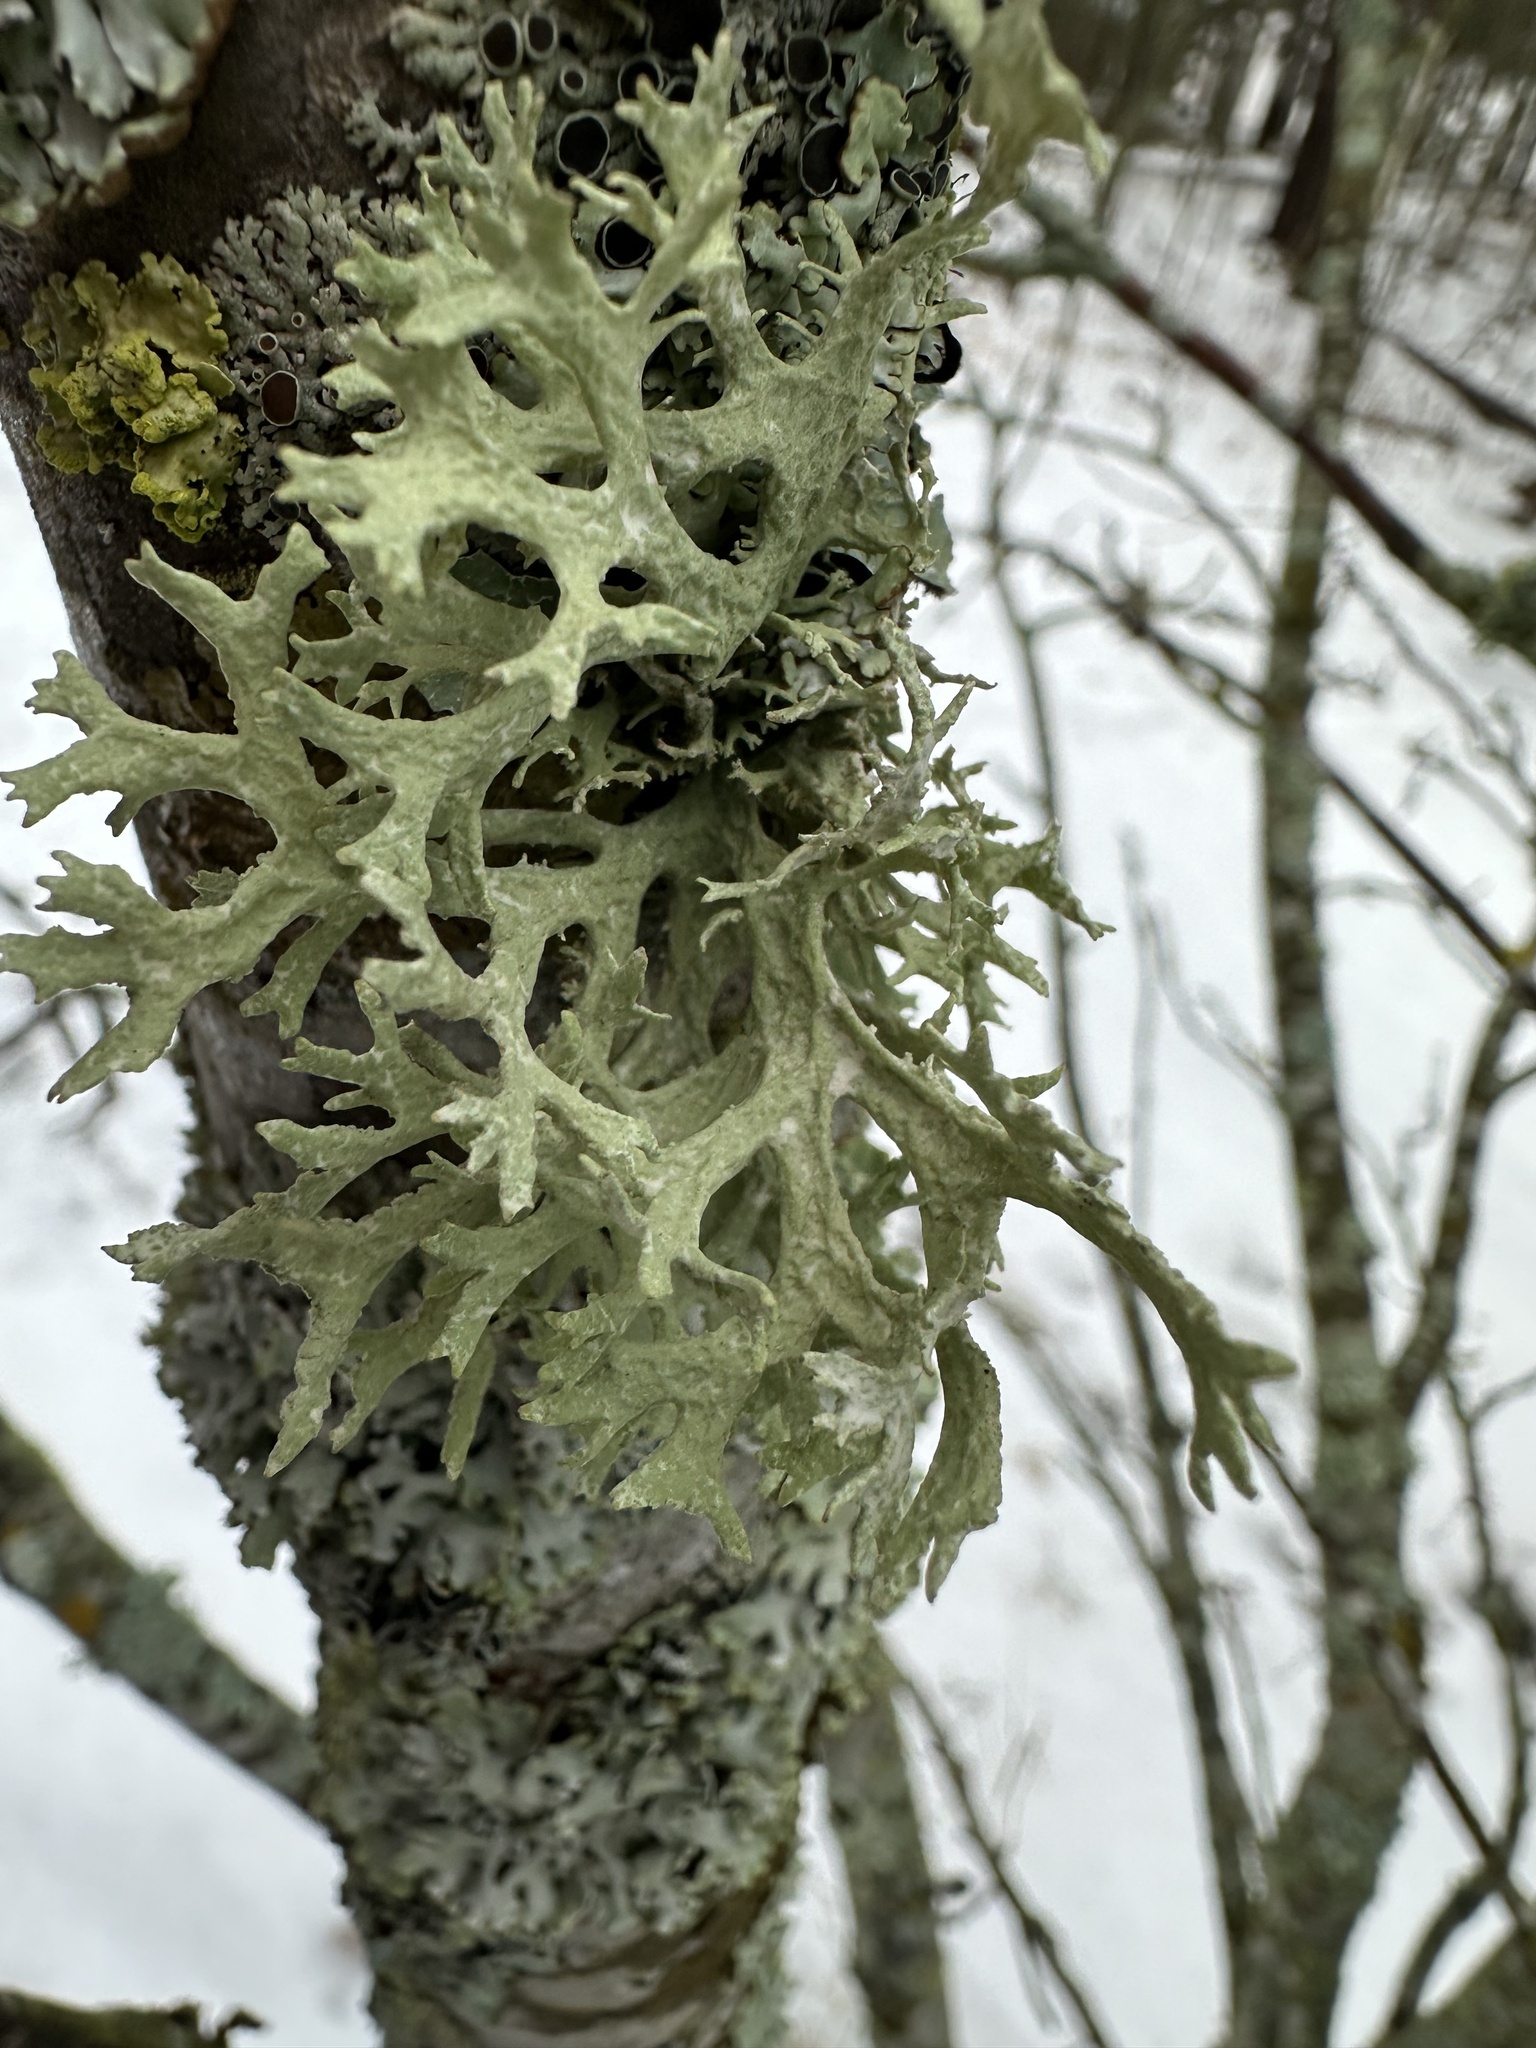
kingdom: Fungi
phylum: Ascomycota
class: Lecanoromycetes
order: Lecanorales
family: Parmeliaceae
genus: Evernia
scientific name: Evernia prunastri
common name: Oak moss
